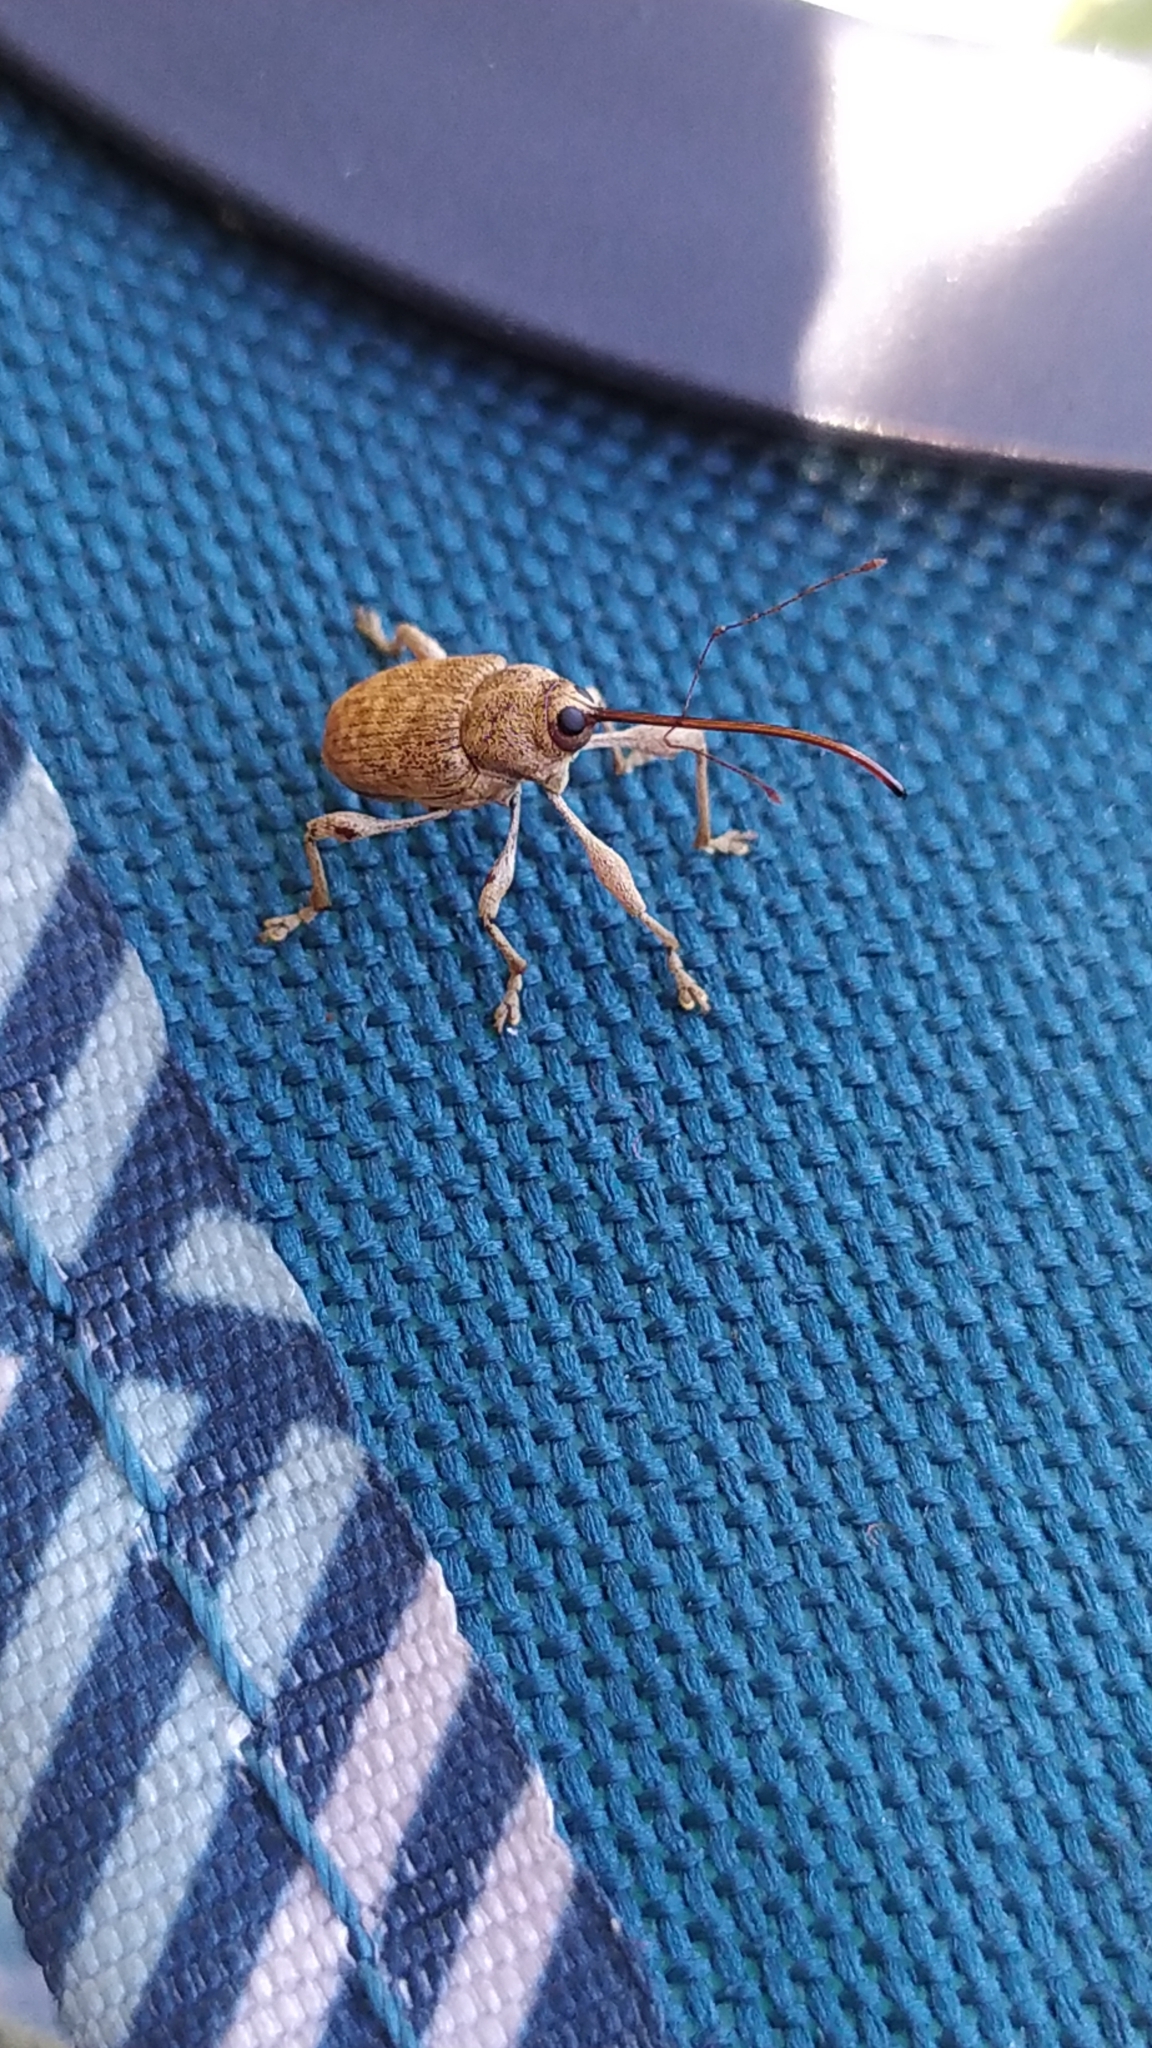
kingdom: Animalia
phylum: Arthropoda
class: Insecta
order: Coleoptera
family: Curculionidae
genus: Curculio
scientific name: Curculio elephas
